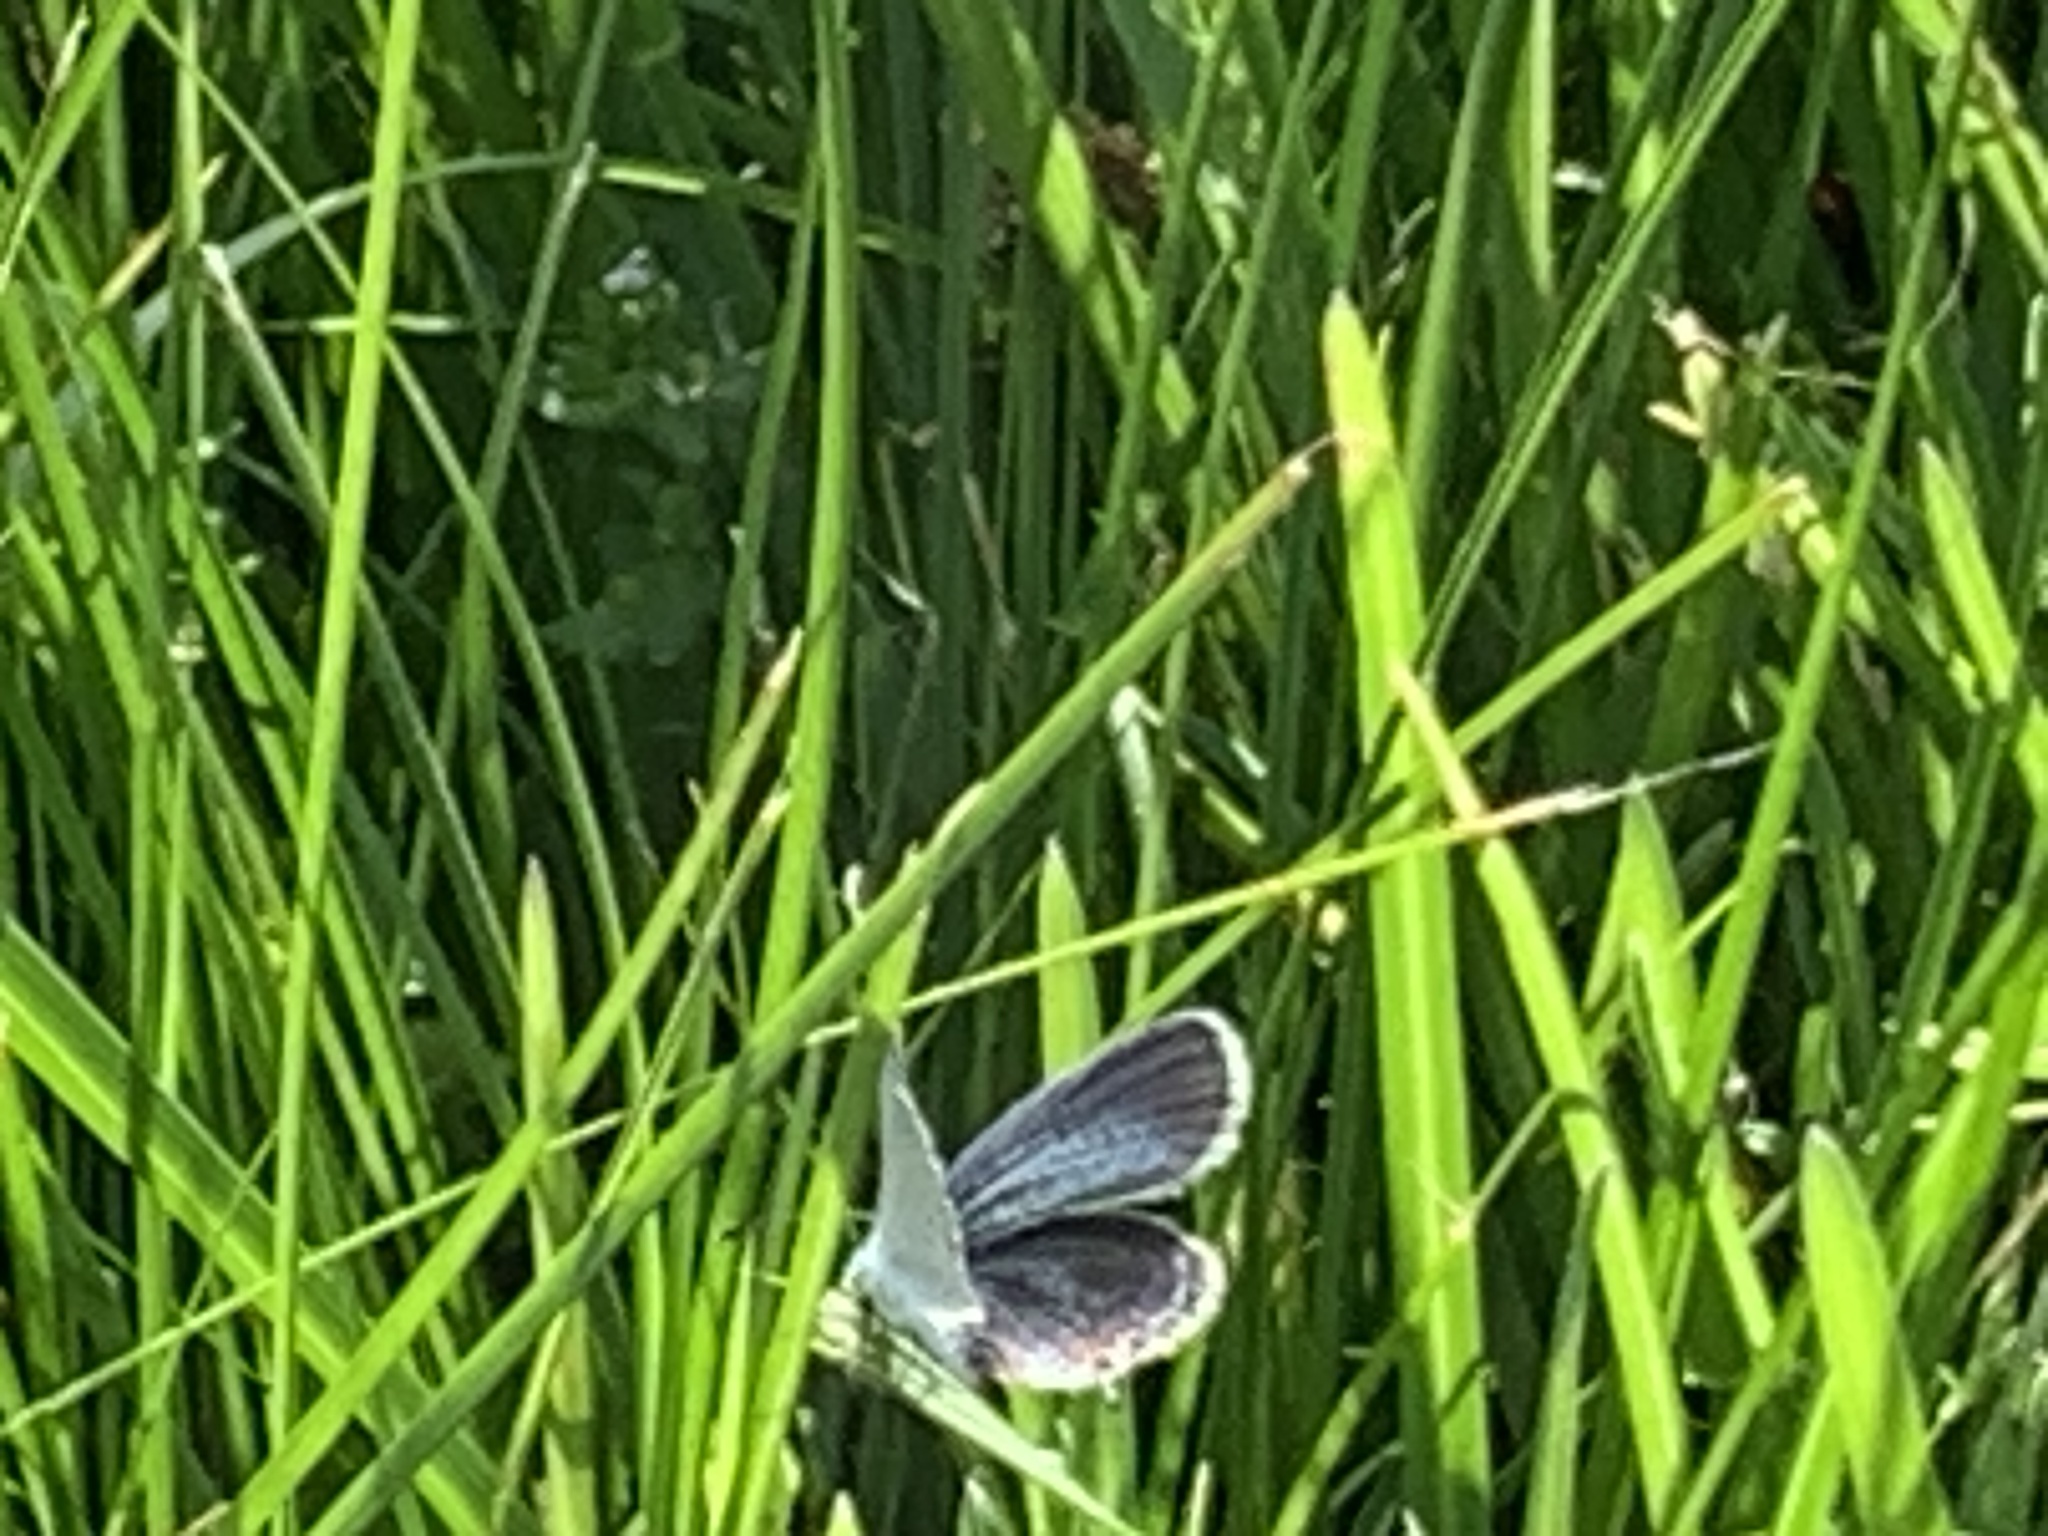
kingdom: Animalia
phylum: Arthropoda
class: Insecta
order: Lepidoptera
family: Lycaenidae
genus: Elkalyce
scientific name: Elkalyce comyntas
